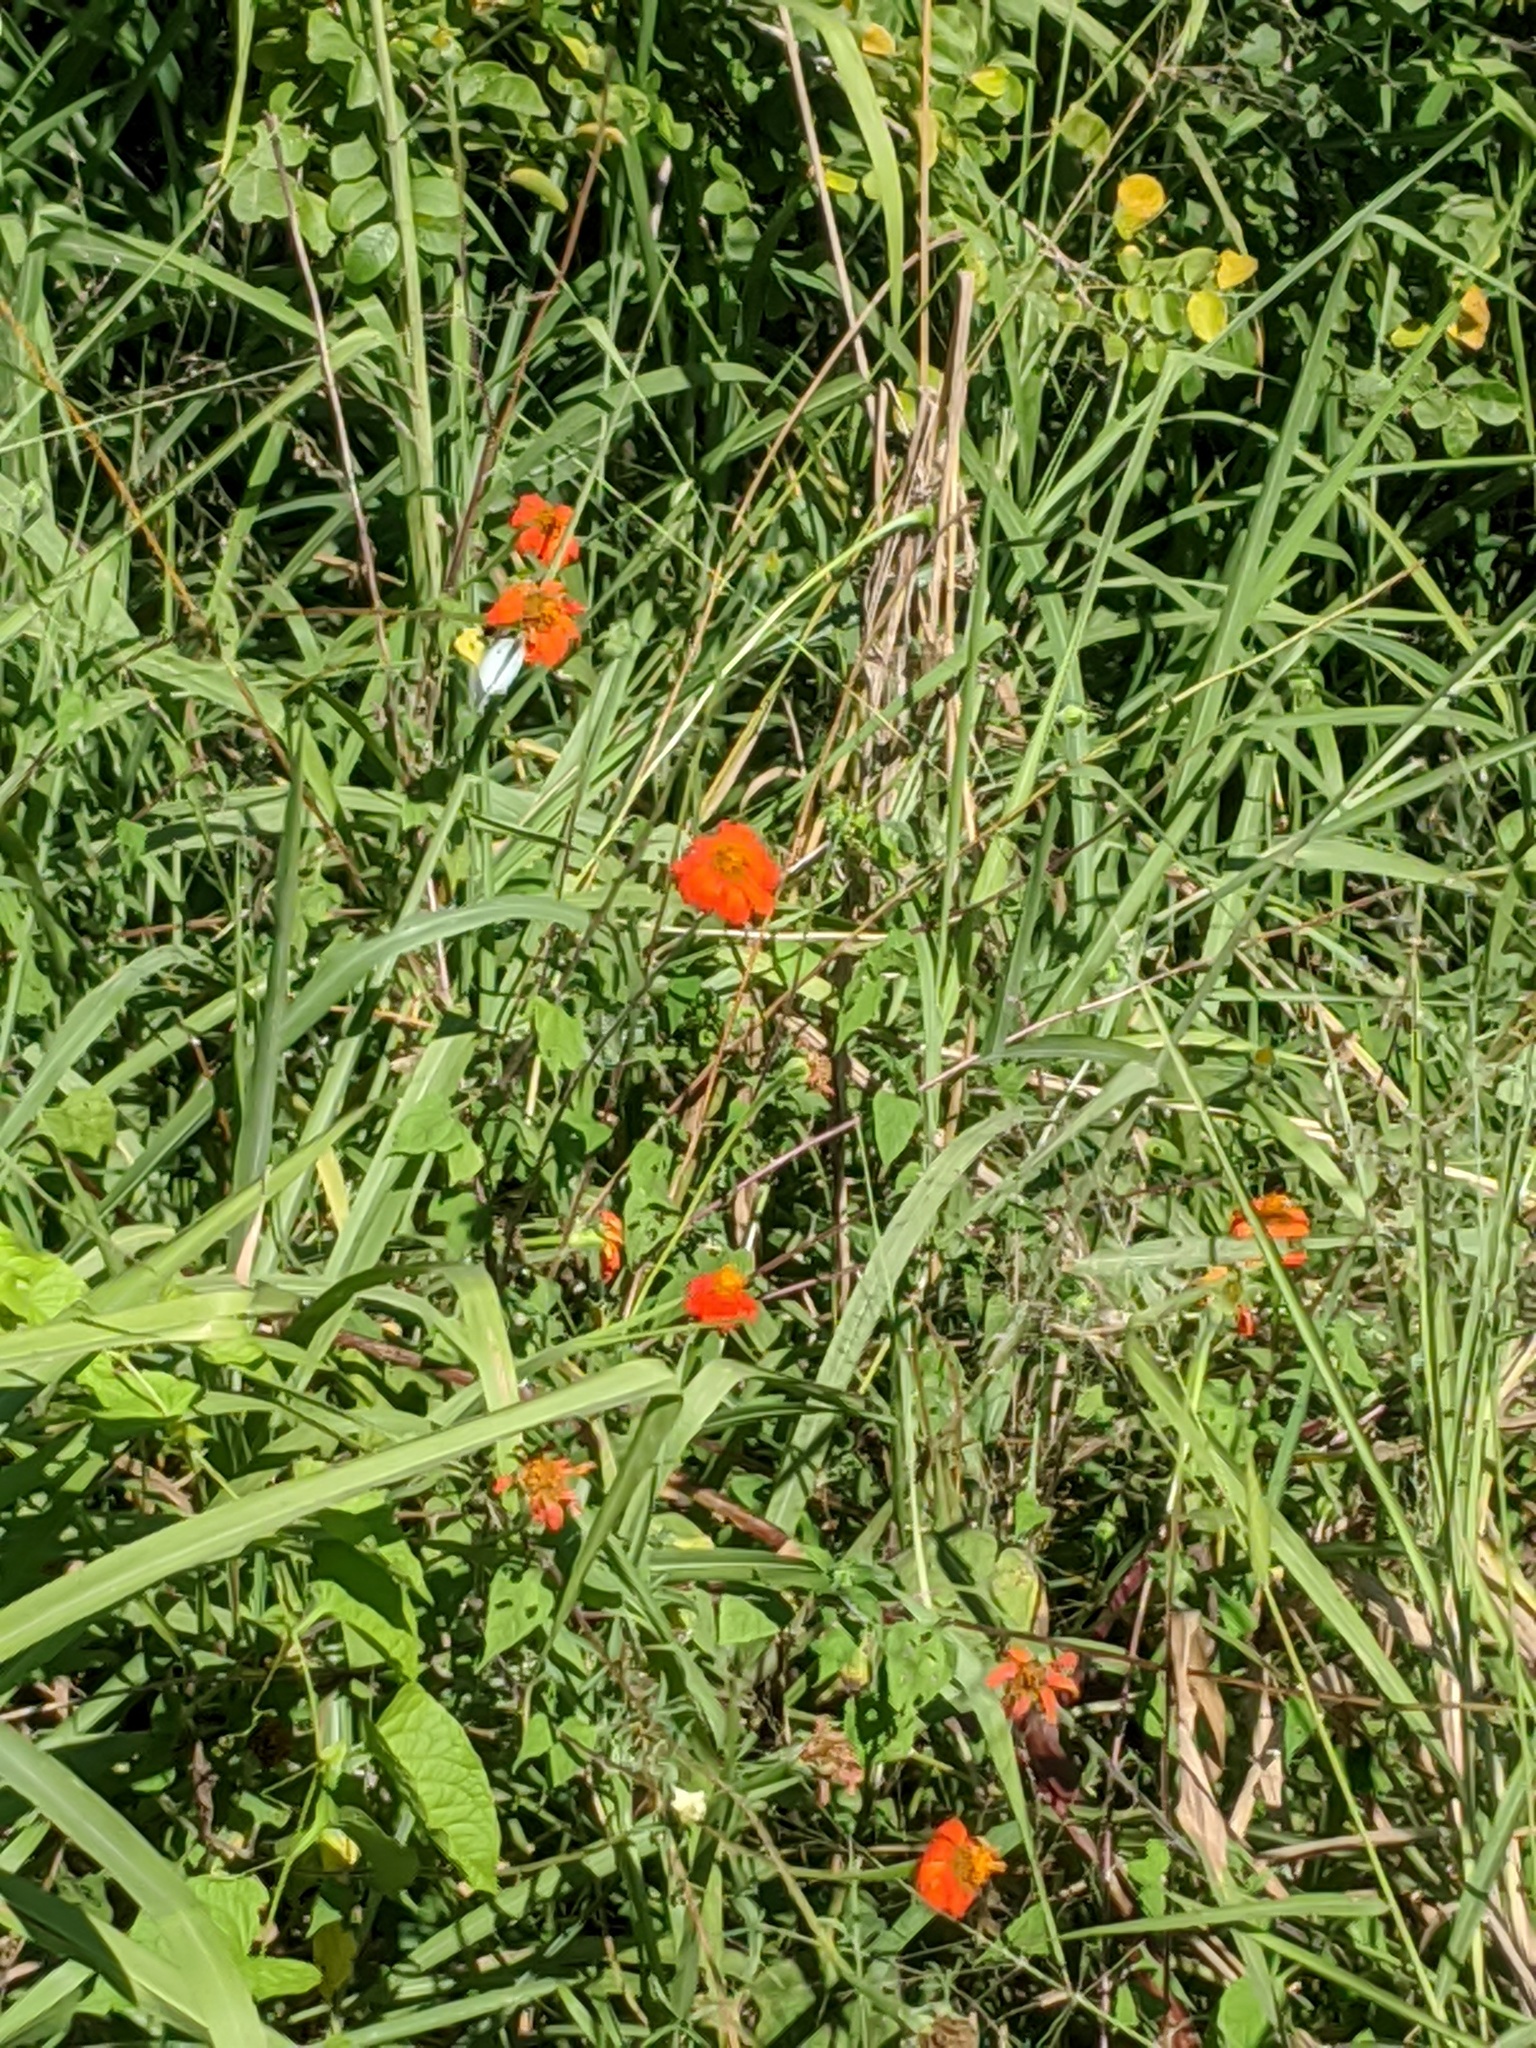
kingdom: Plantae
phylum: Tracheophyta
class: Magnoliopsida
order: Asterales
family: Asteraceae
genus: Tithonia
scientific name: Tithonia rotundifolia
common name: Sunflower
